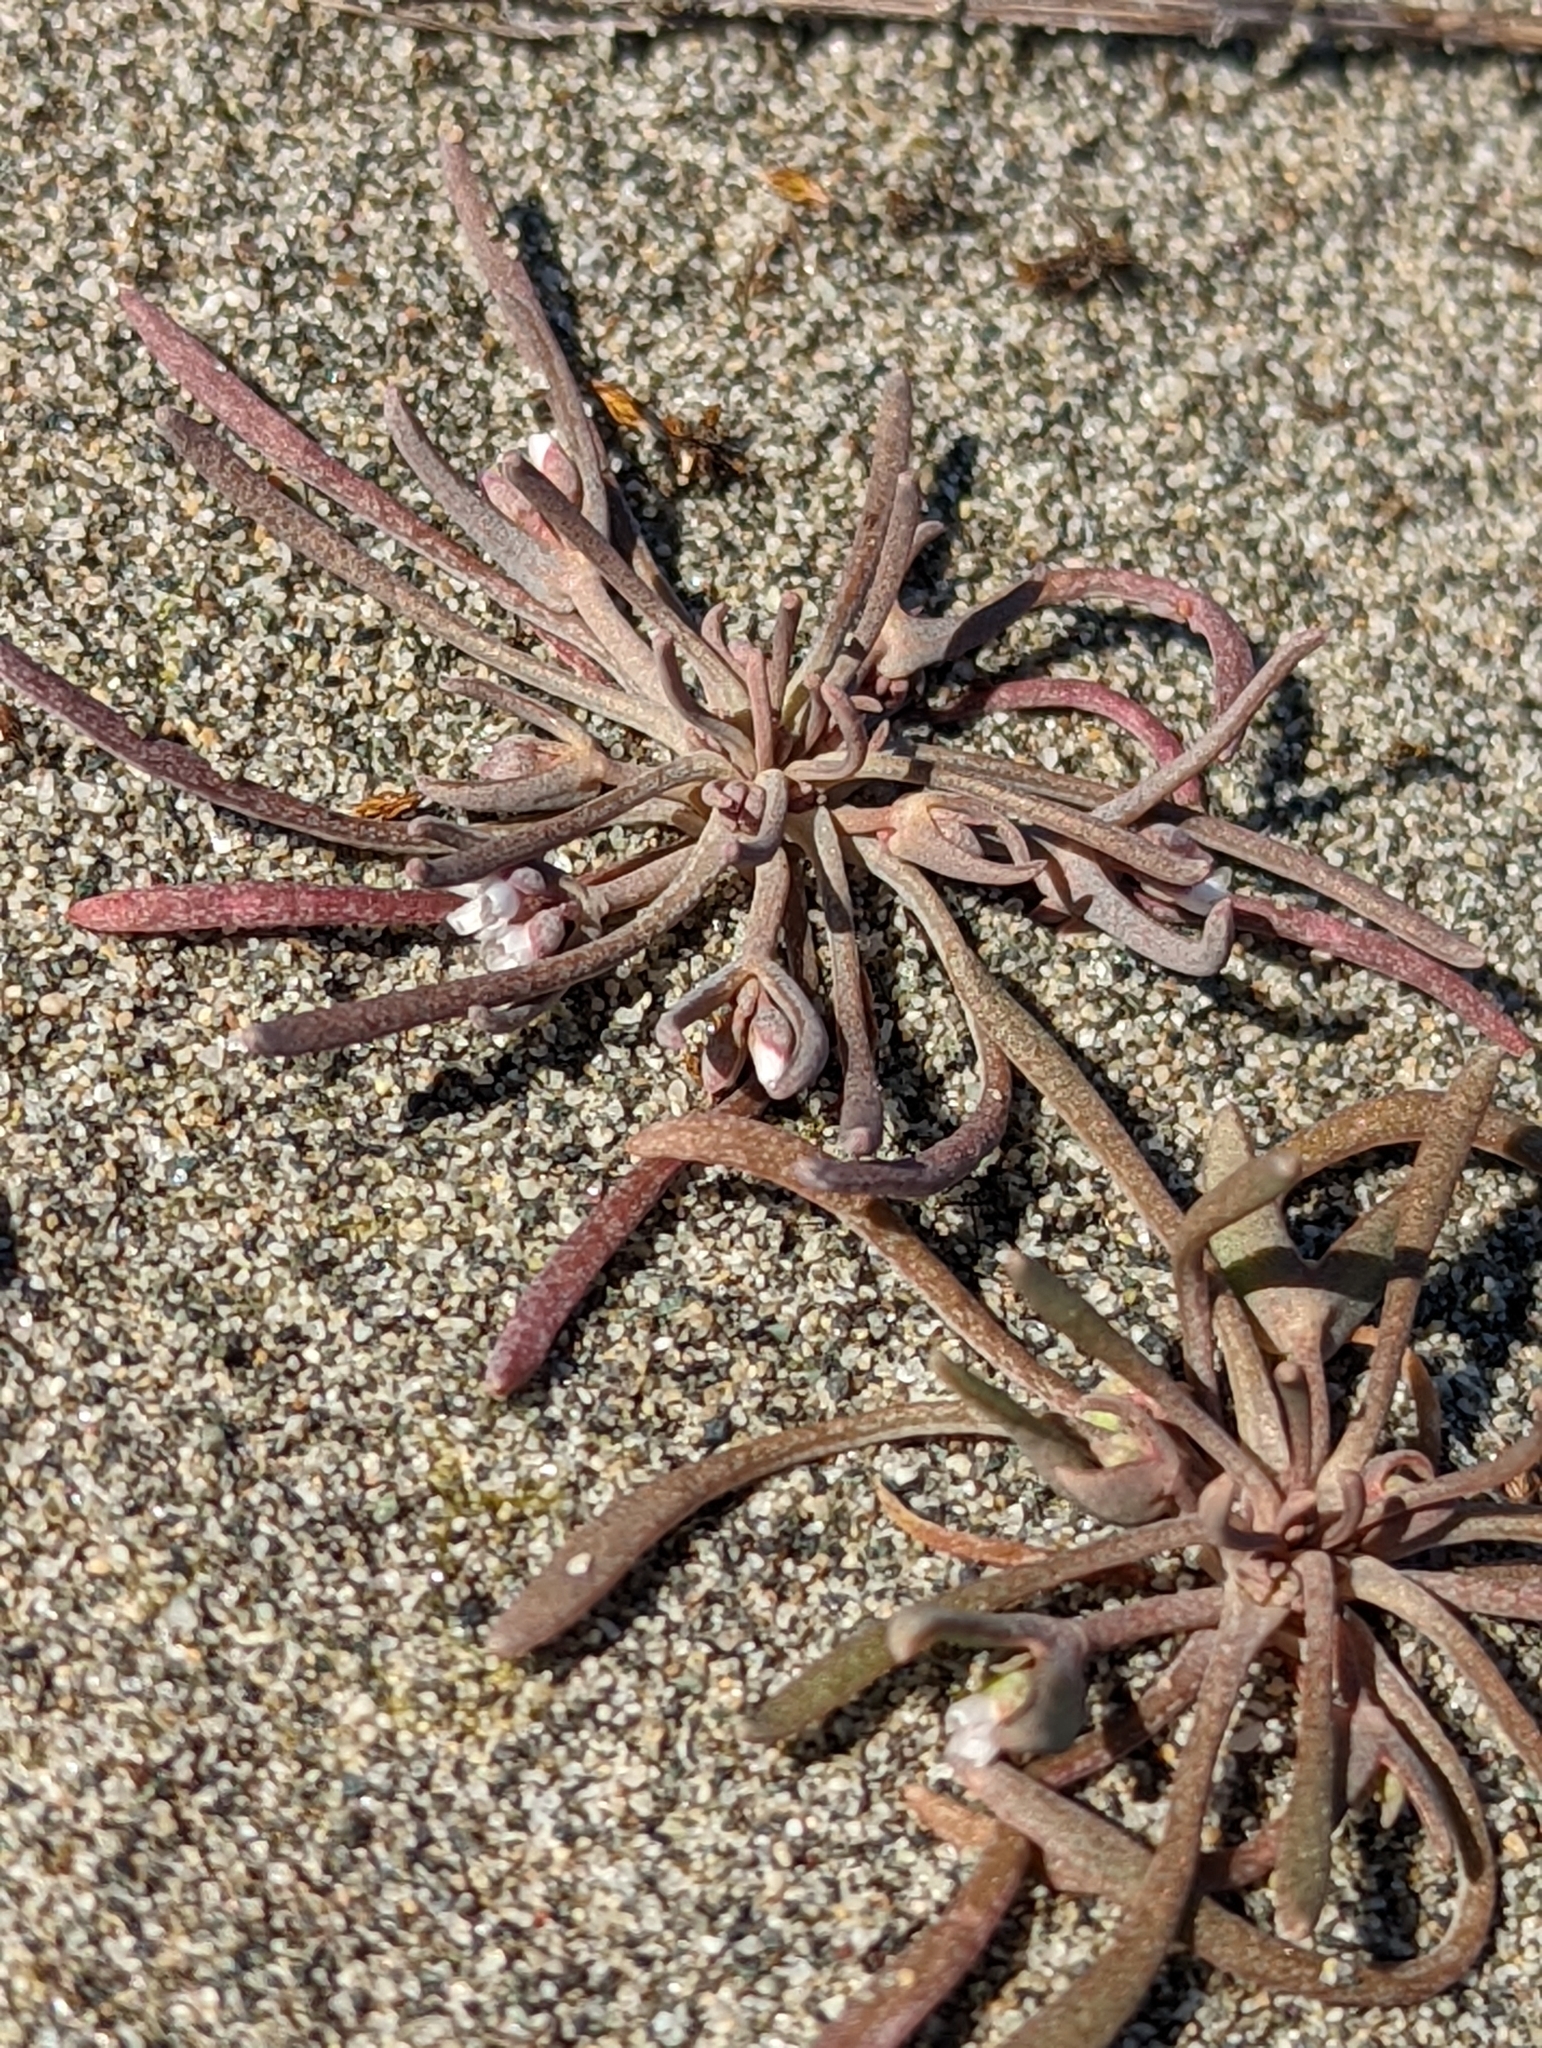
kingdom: Plantae
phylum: Tracheophyta
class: Magnoliopsida
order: Caryophyllales
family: Montiaceae
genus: Claytonia
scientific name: Claytonia exigua
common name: Pale spring beauty
